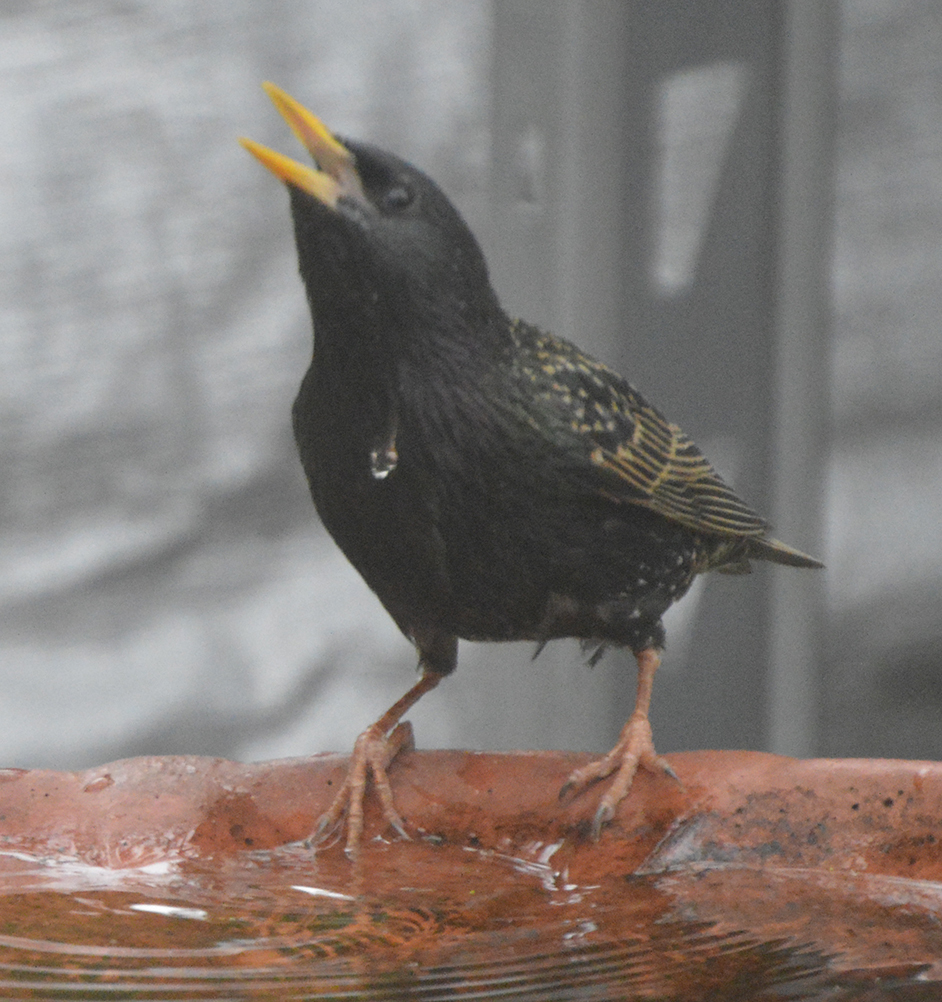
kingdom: Animalia
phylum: Chordata
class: Aves
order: Passeriformes
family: Sturnidae
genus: Sturnus
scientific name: Sturnus vulgaris
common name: Common starling
